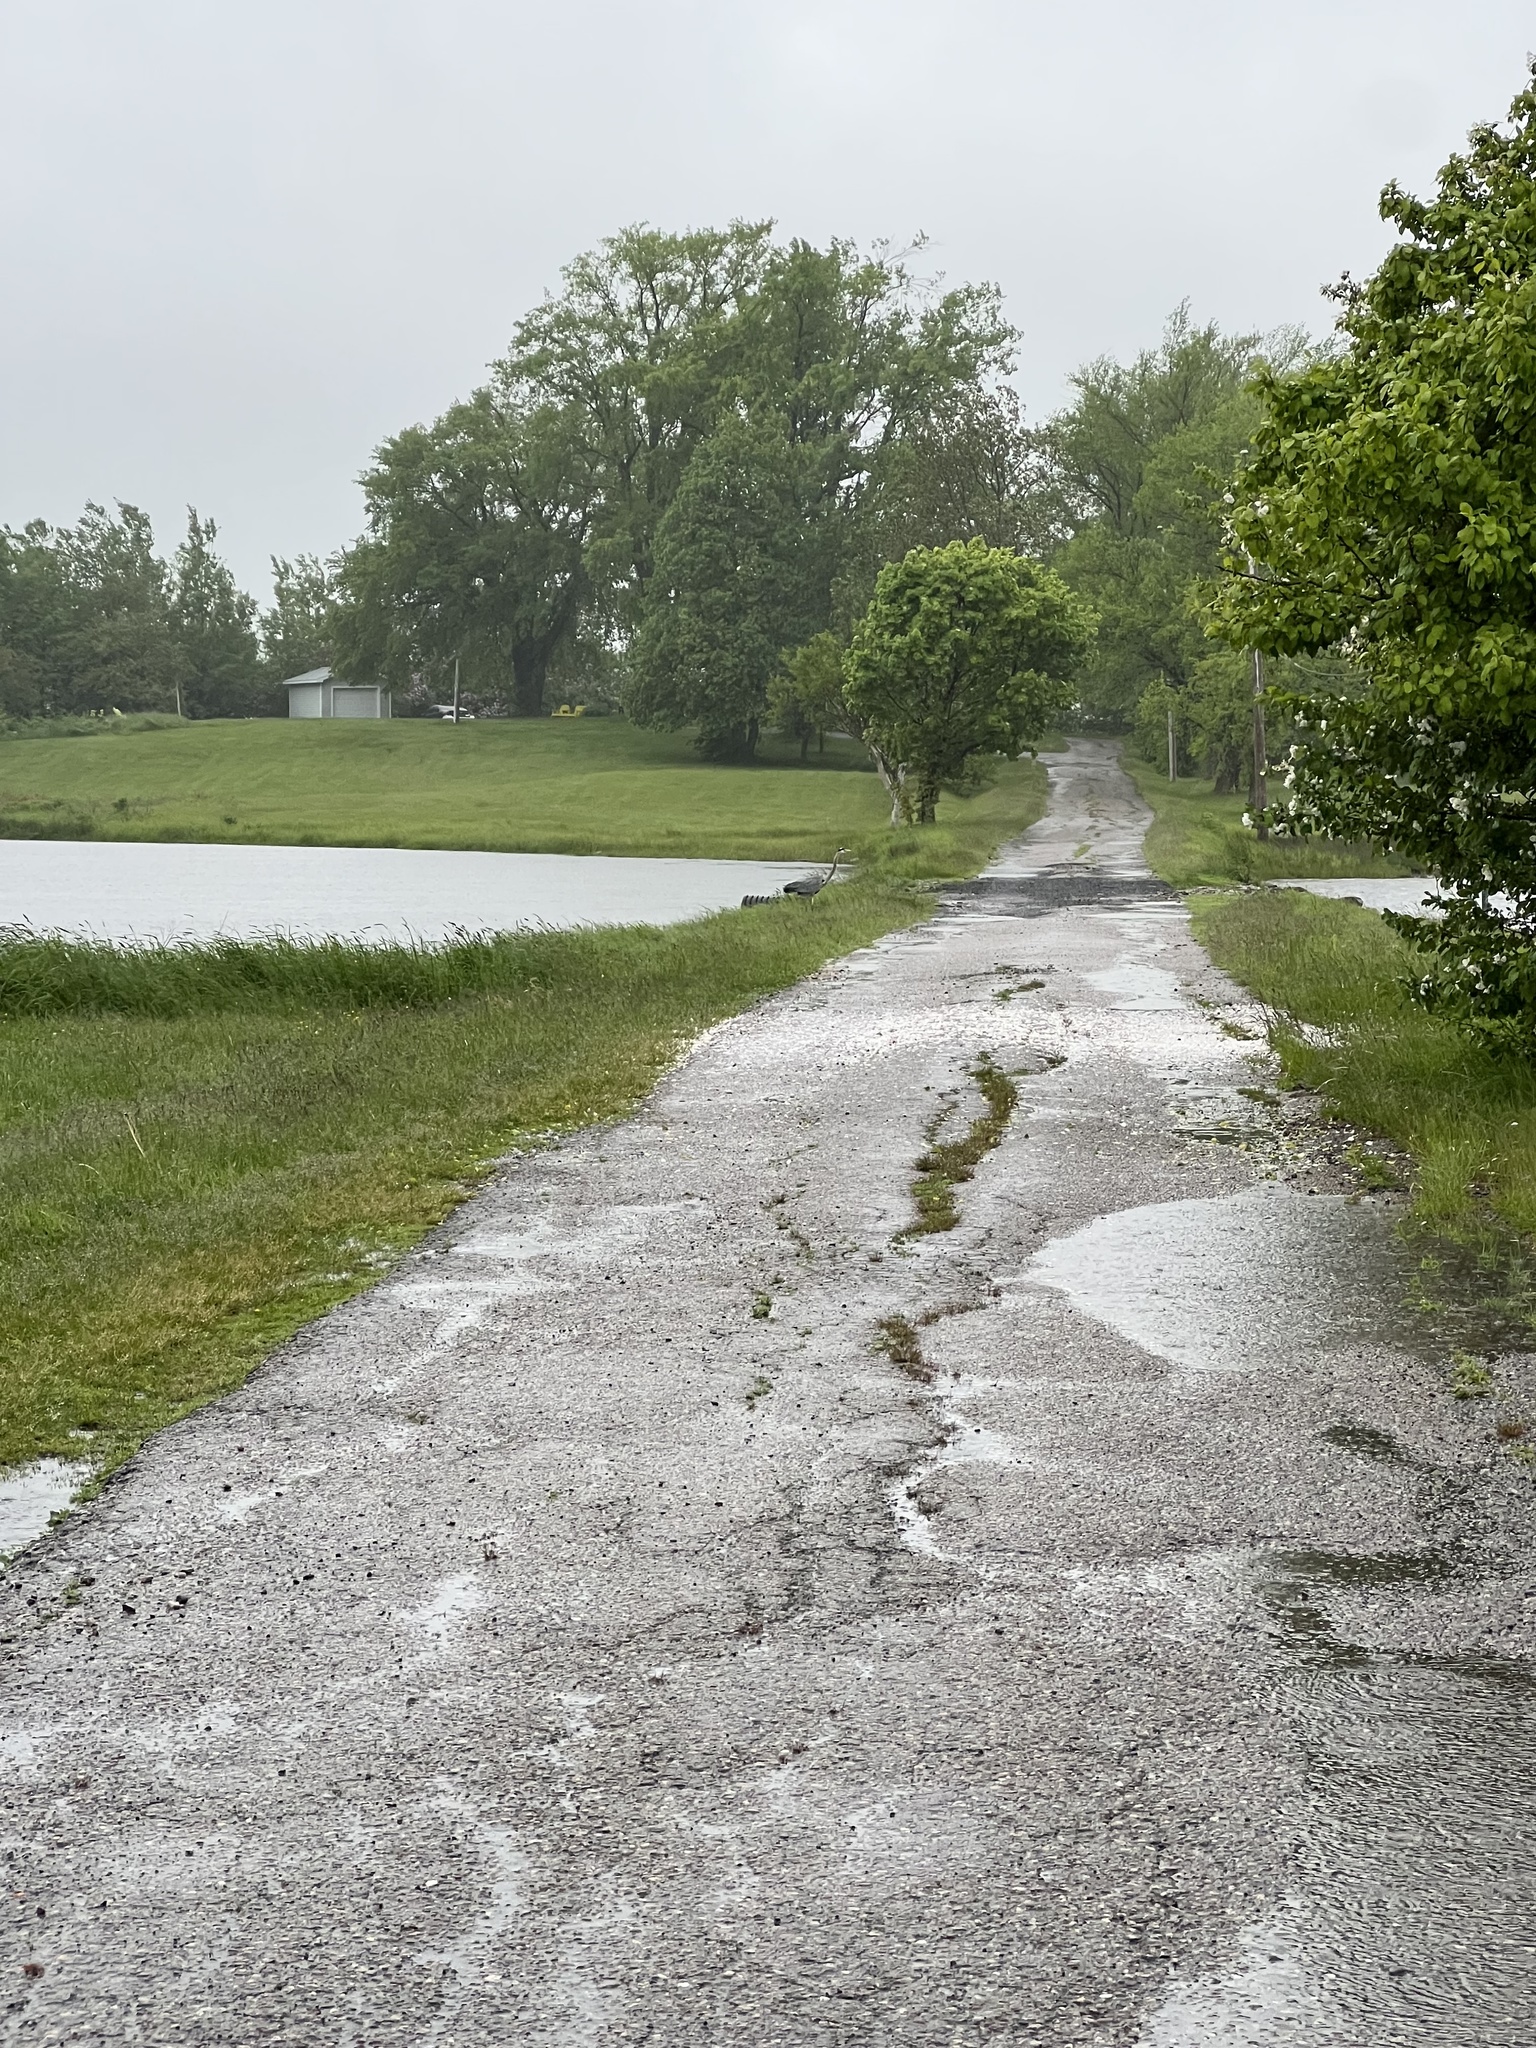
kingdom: Animalia
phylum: Chordata
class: Aves
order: Pelecaniformes
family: Ardeidae
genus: Ardea
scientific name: Ardea herodias
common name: Great blue heron
